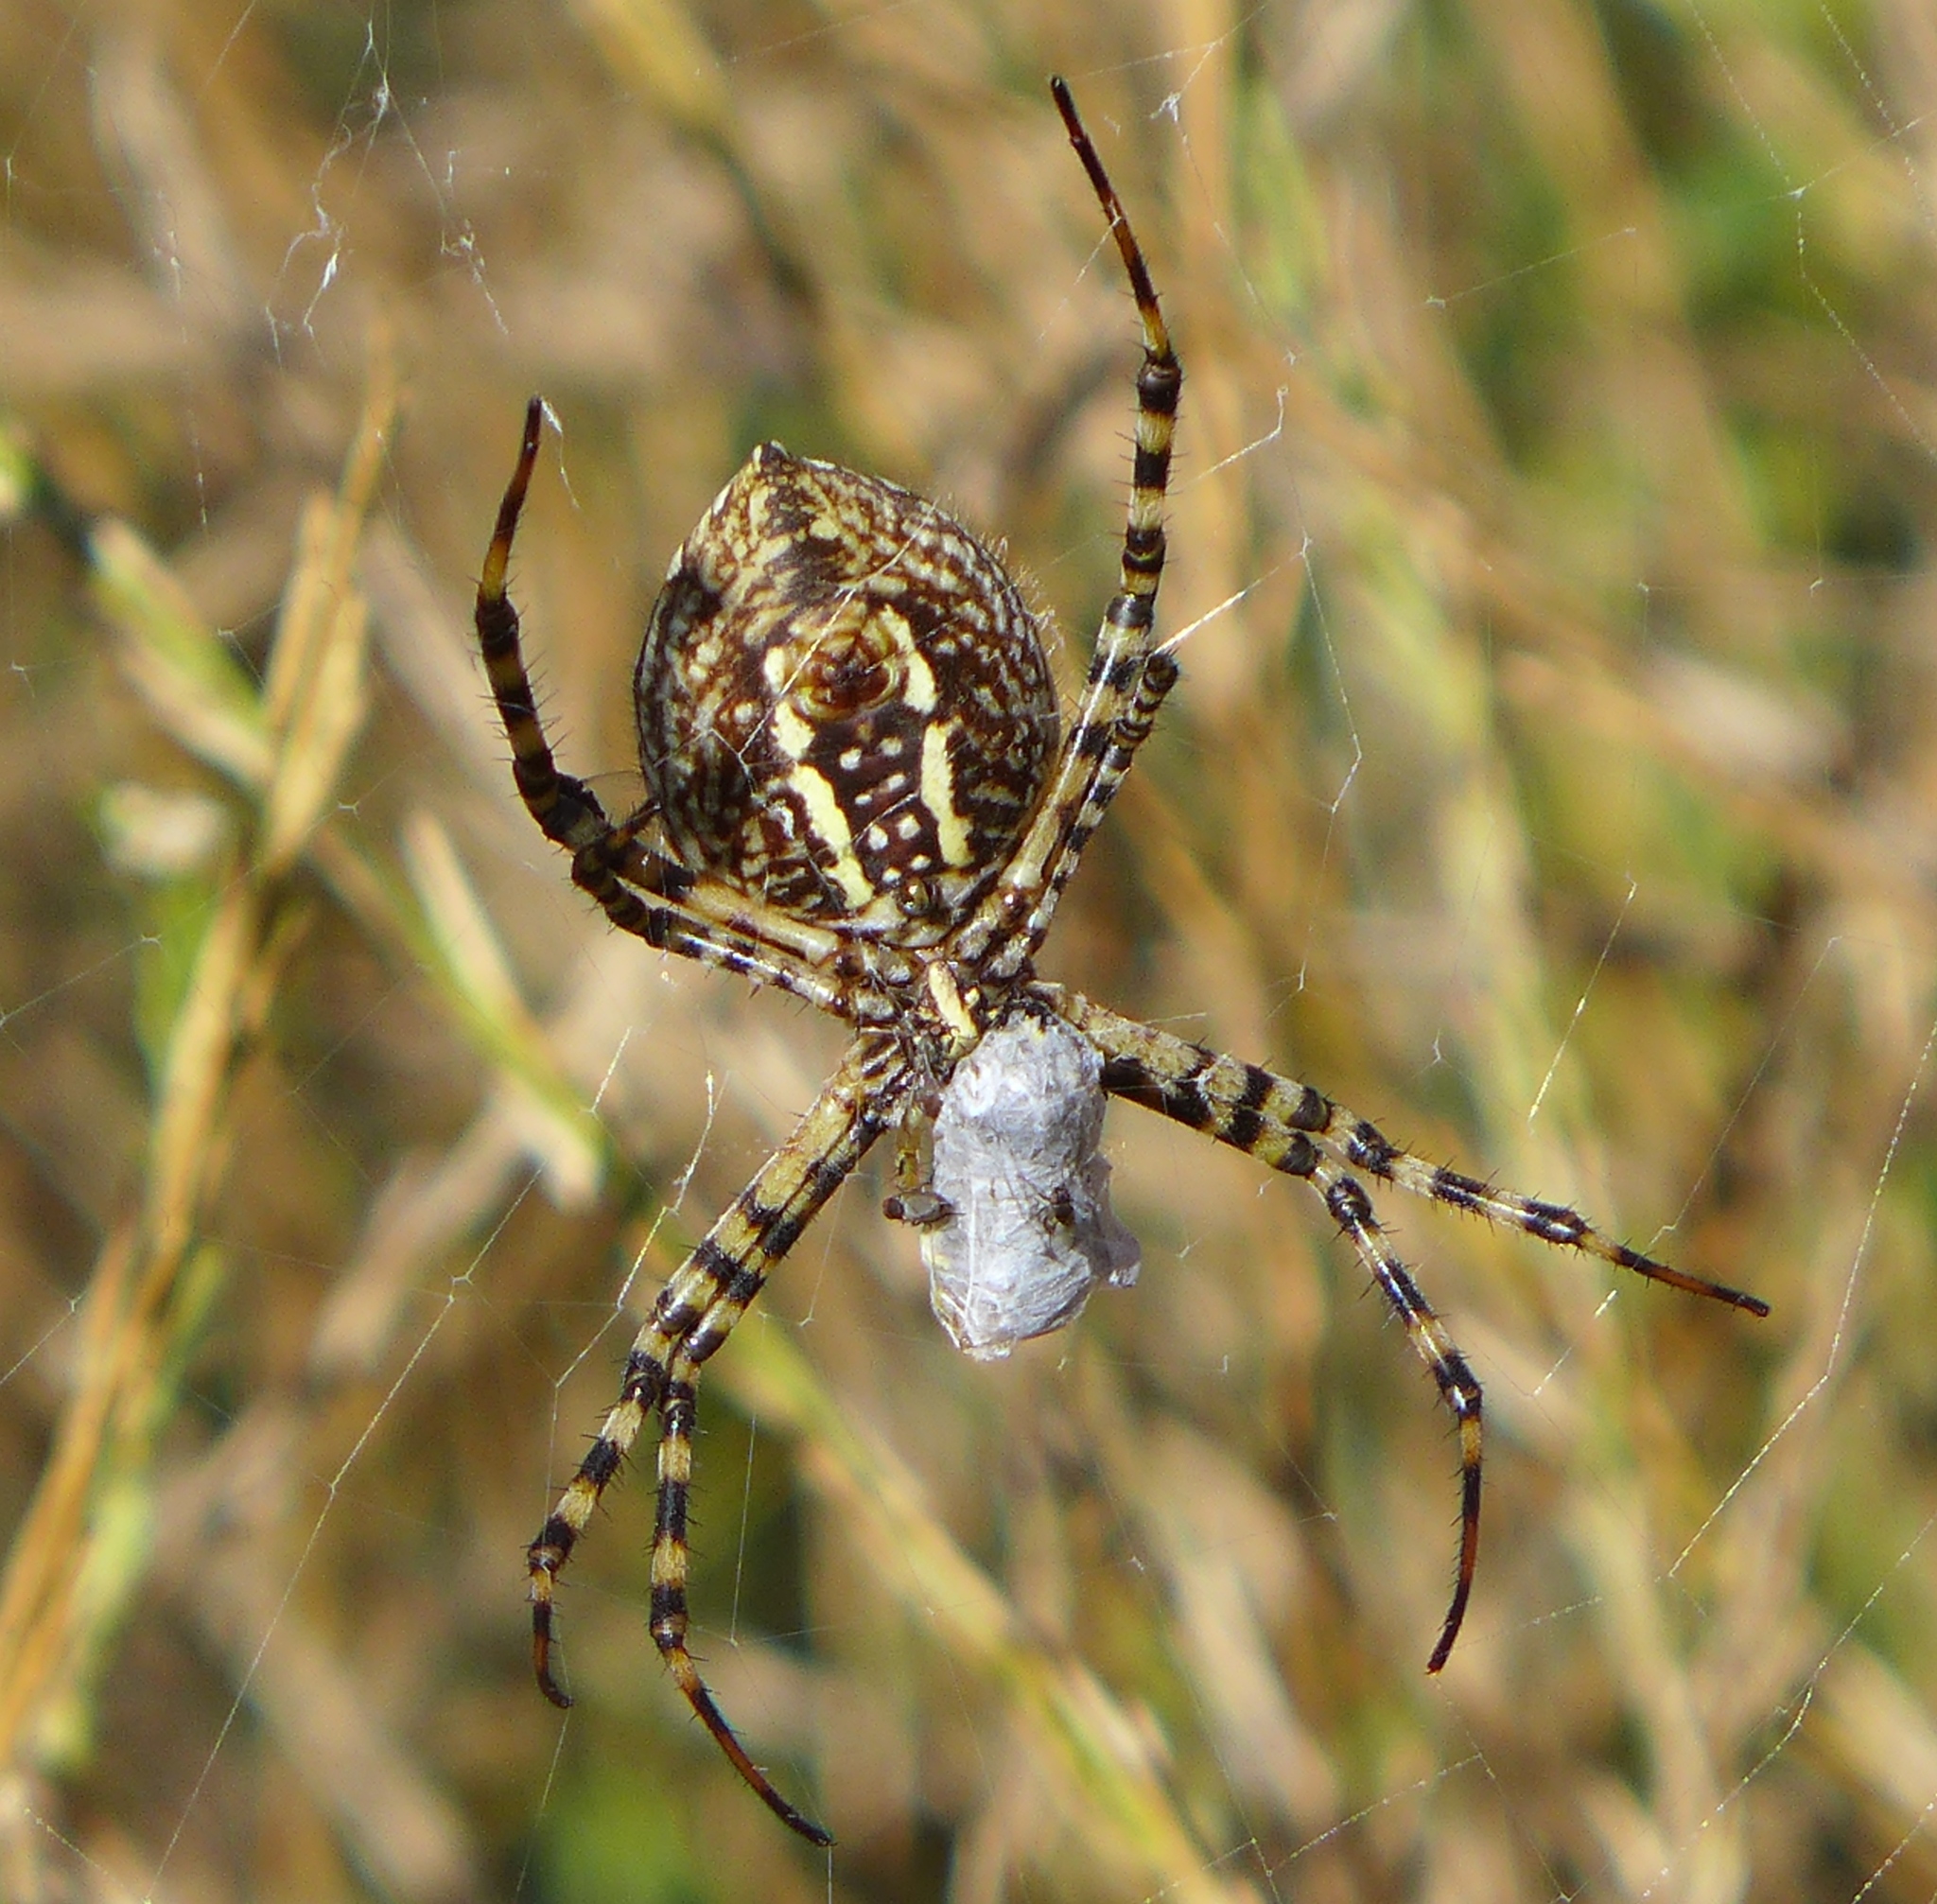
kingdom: Animalia
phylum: Arthropoda
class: Arachnida
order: Araneae
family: Araneidae
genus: Argiope
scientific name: Argiope trifasciata
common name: Banded garden spider
